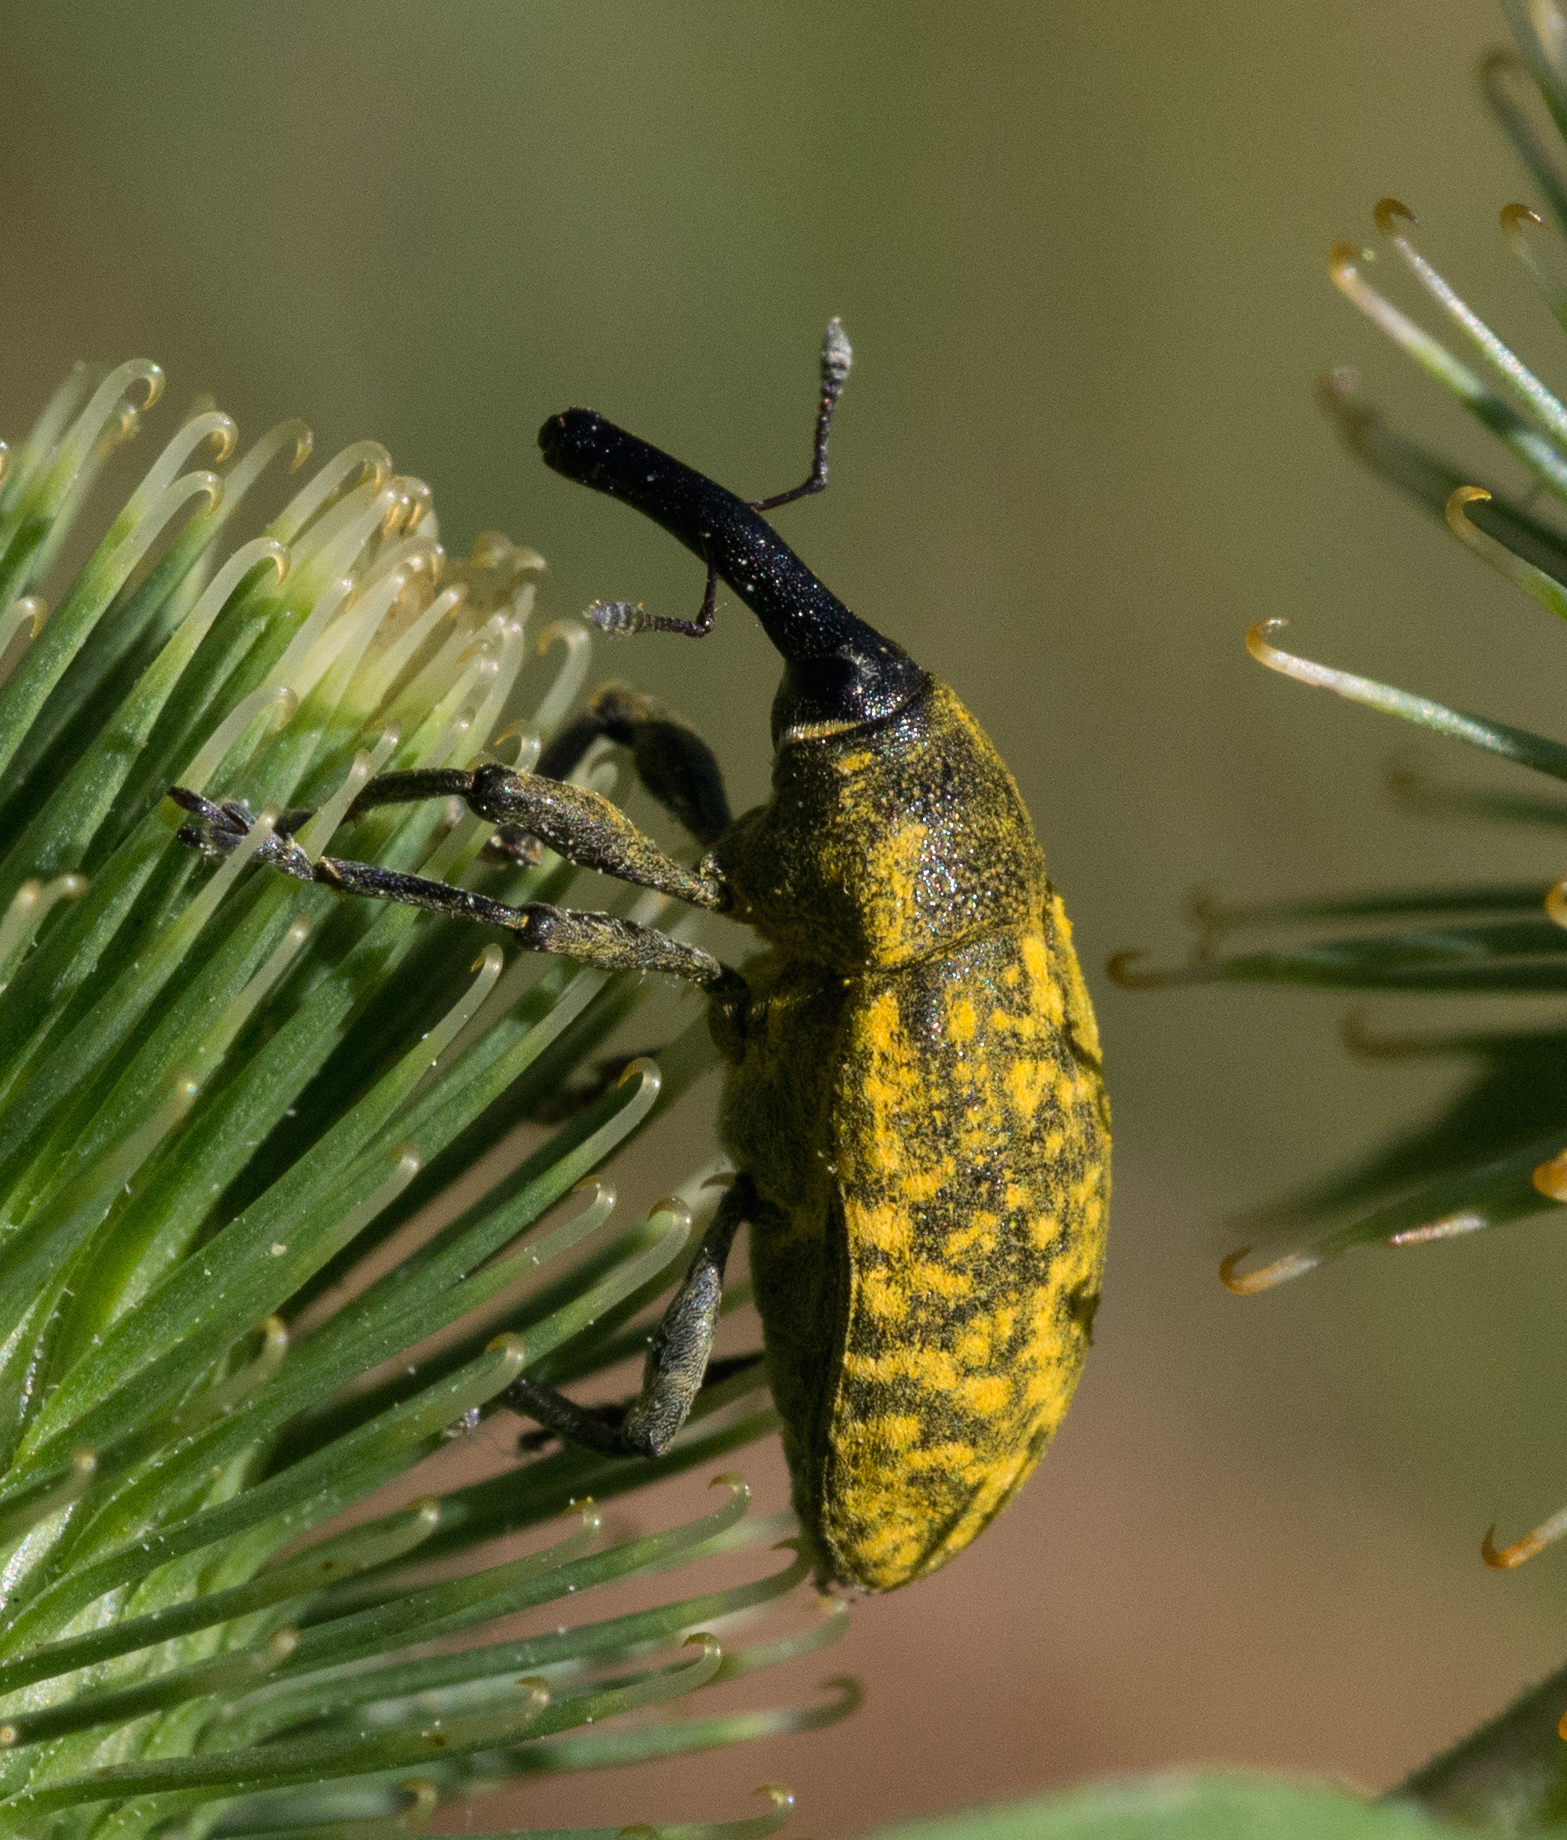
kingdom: Animalia
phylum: Arthropoda
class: Insecta
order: Coleoptera
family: Curculionidae
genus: Larinus
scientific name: Larinus sturnus
